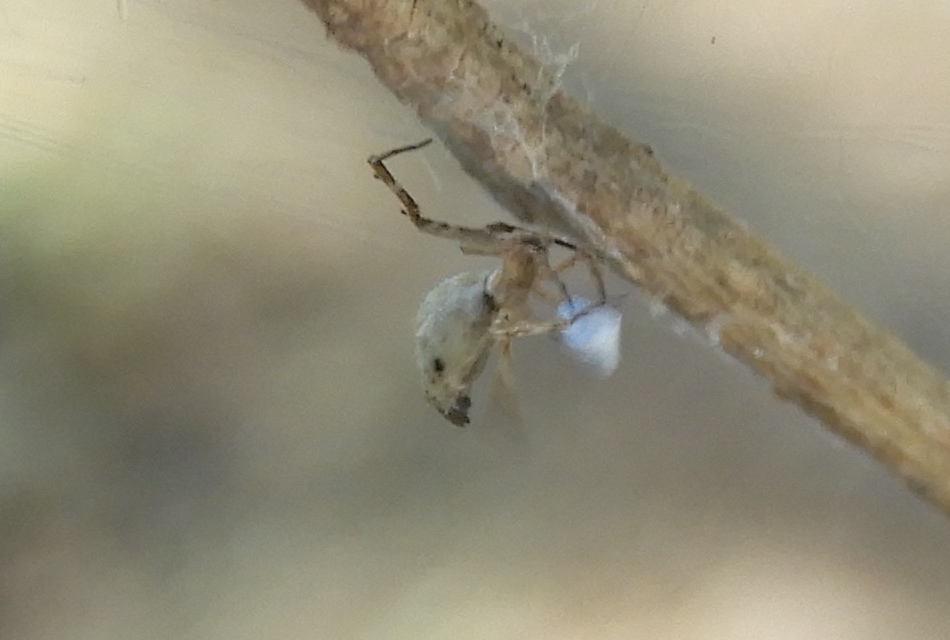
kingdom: Animalia
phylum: Arthropoda
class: Arachnida
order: Araneae
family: Uloboridae
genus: Uloborus
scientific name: Uloborus
